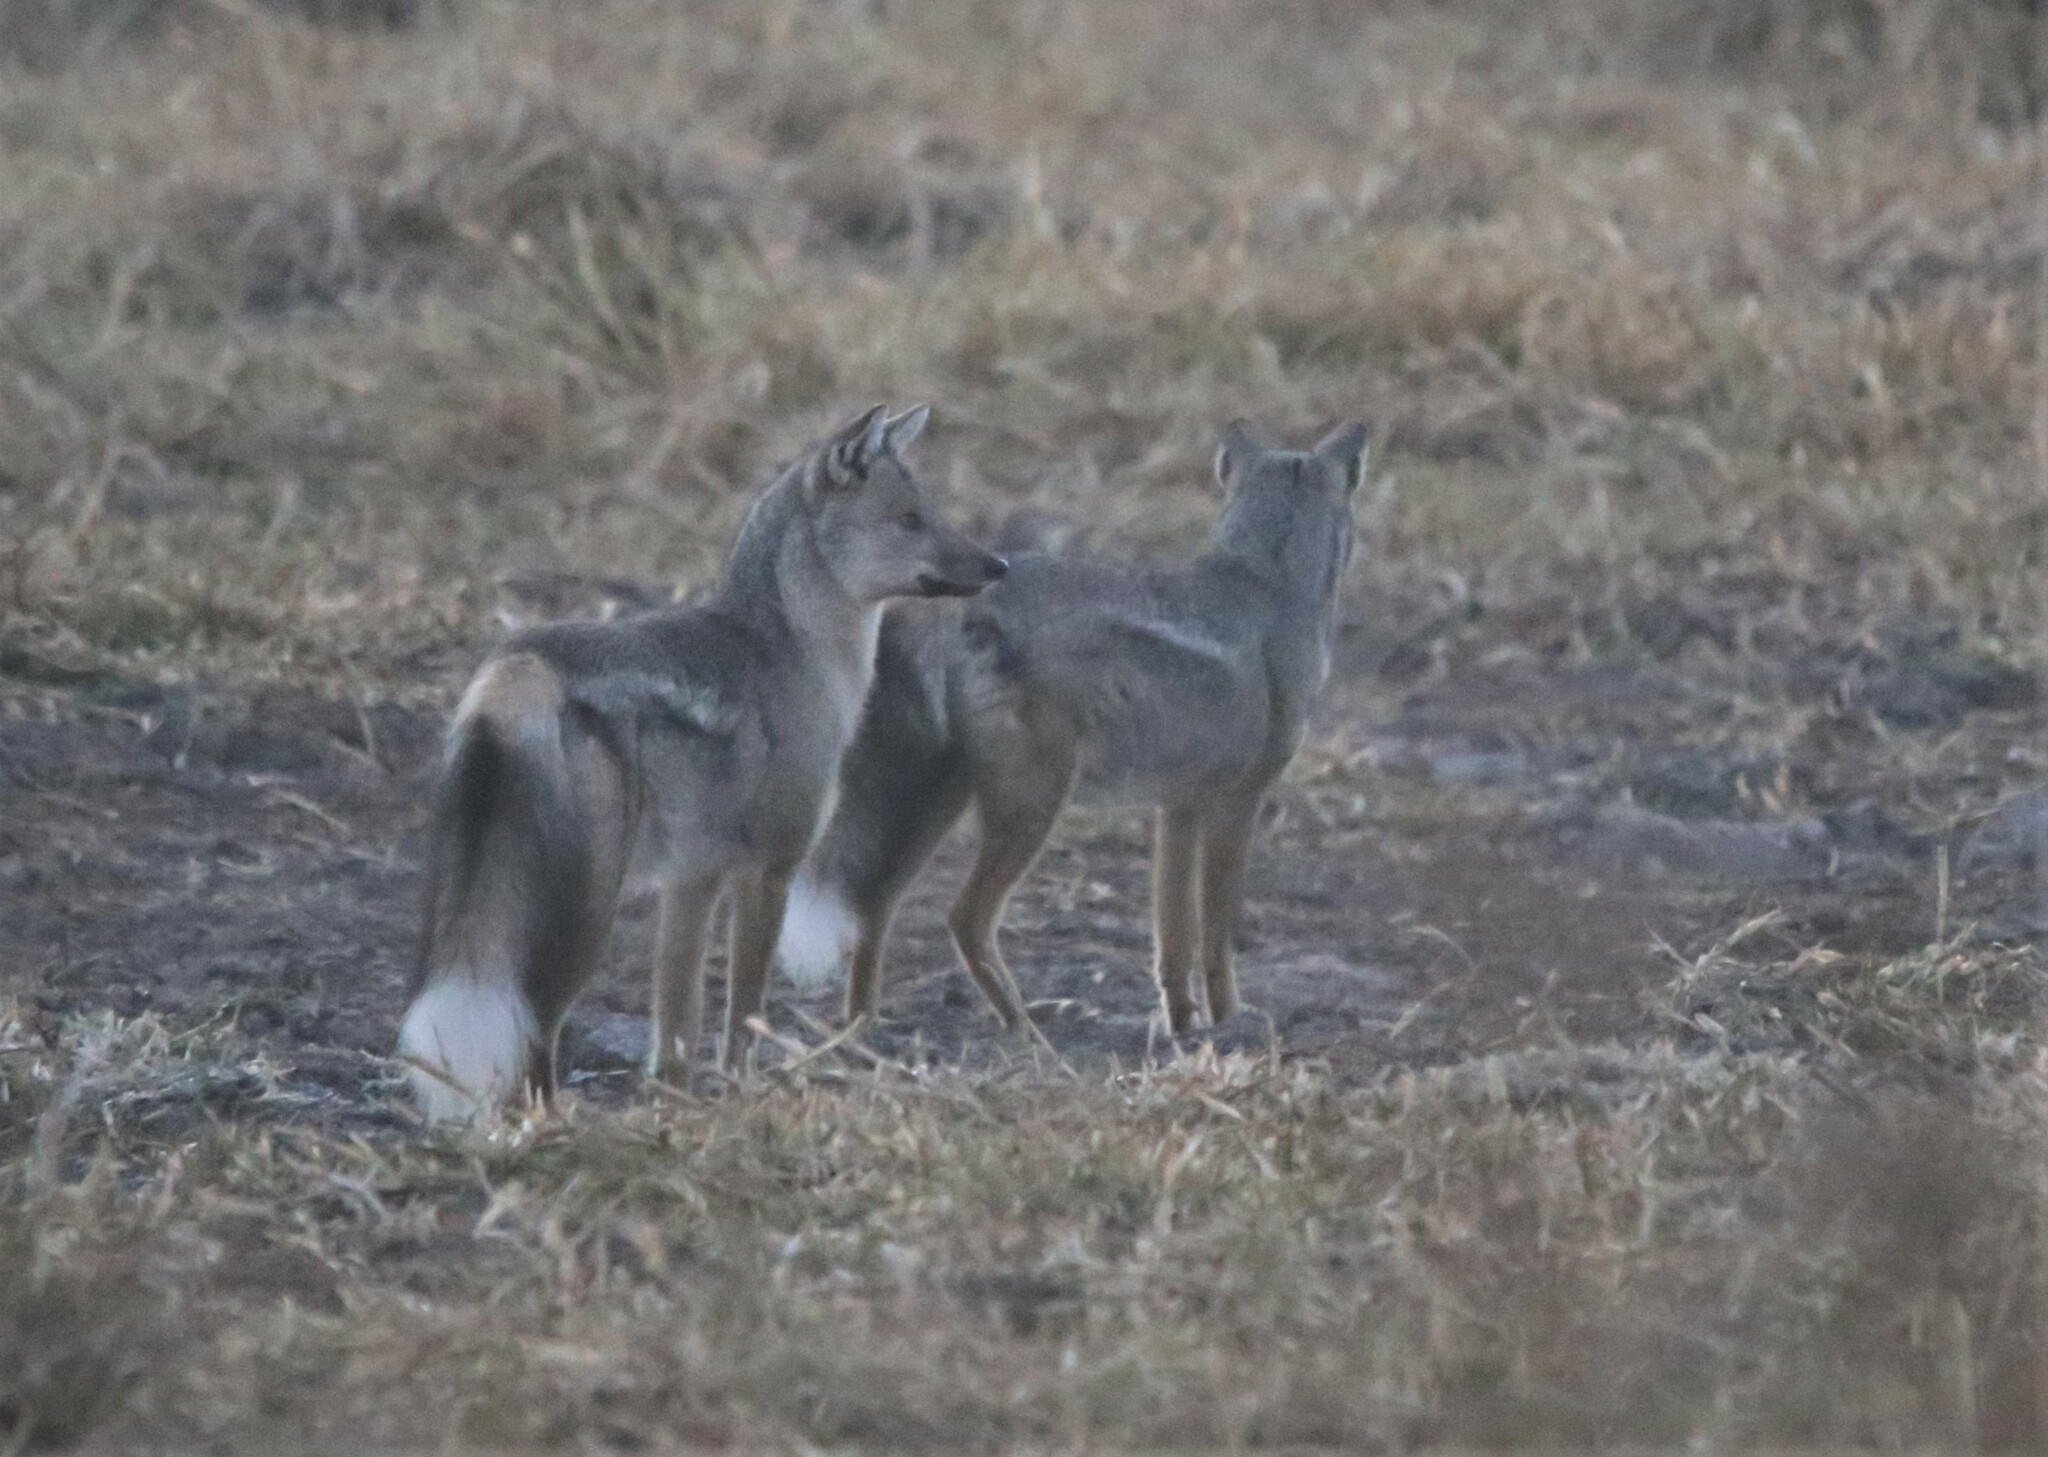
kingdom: Animalia
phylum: Chordata
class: Mammalia
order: Carnivora
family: Canidae
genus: Lupulella
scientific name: Lupulella
